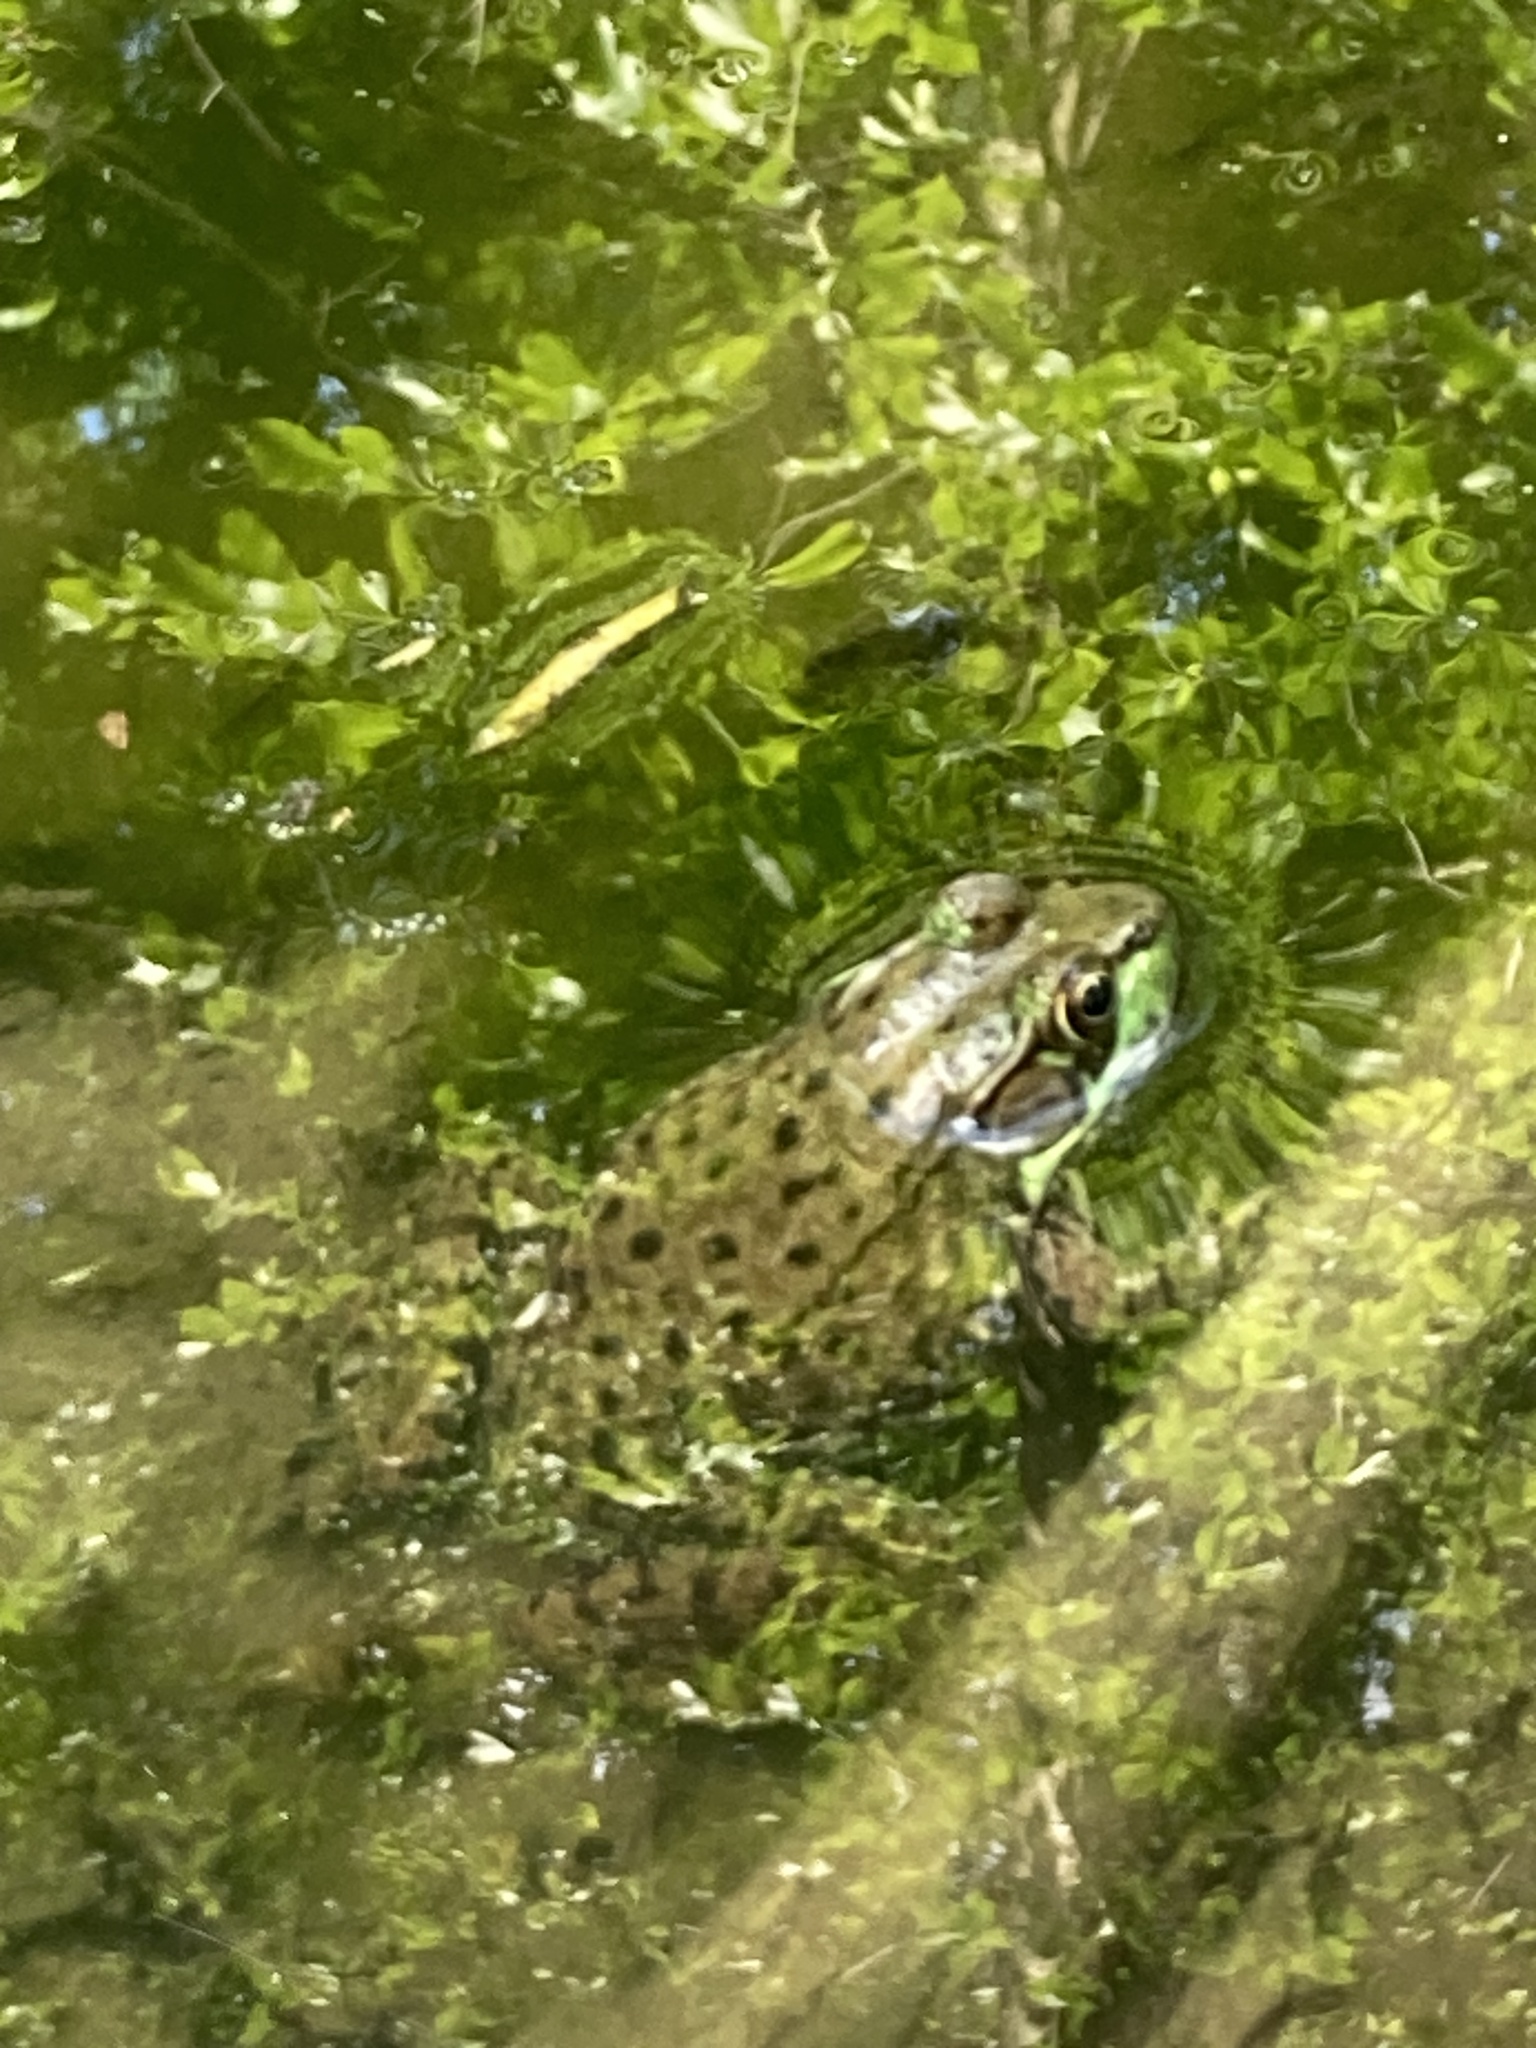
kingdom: Animalia
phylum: Chordata
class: Amphibia
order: Anura
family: Ranidae
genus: Lithobates
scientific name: Lithobates clamitans
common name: Green frog
